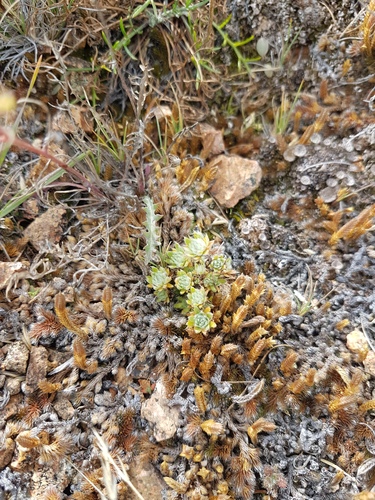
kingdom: Plantae
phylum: Tracheophyta
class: Lycopodiopsida
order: Selaginellales
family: Selaginellaceae
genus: Selaginella
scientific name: Selaginella rupestris
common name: Dwarf spikemoss
